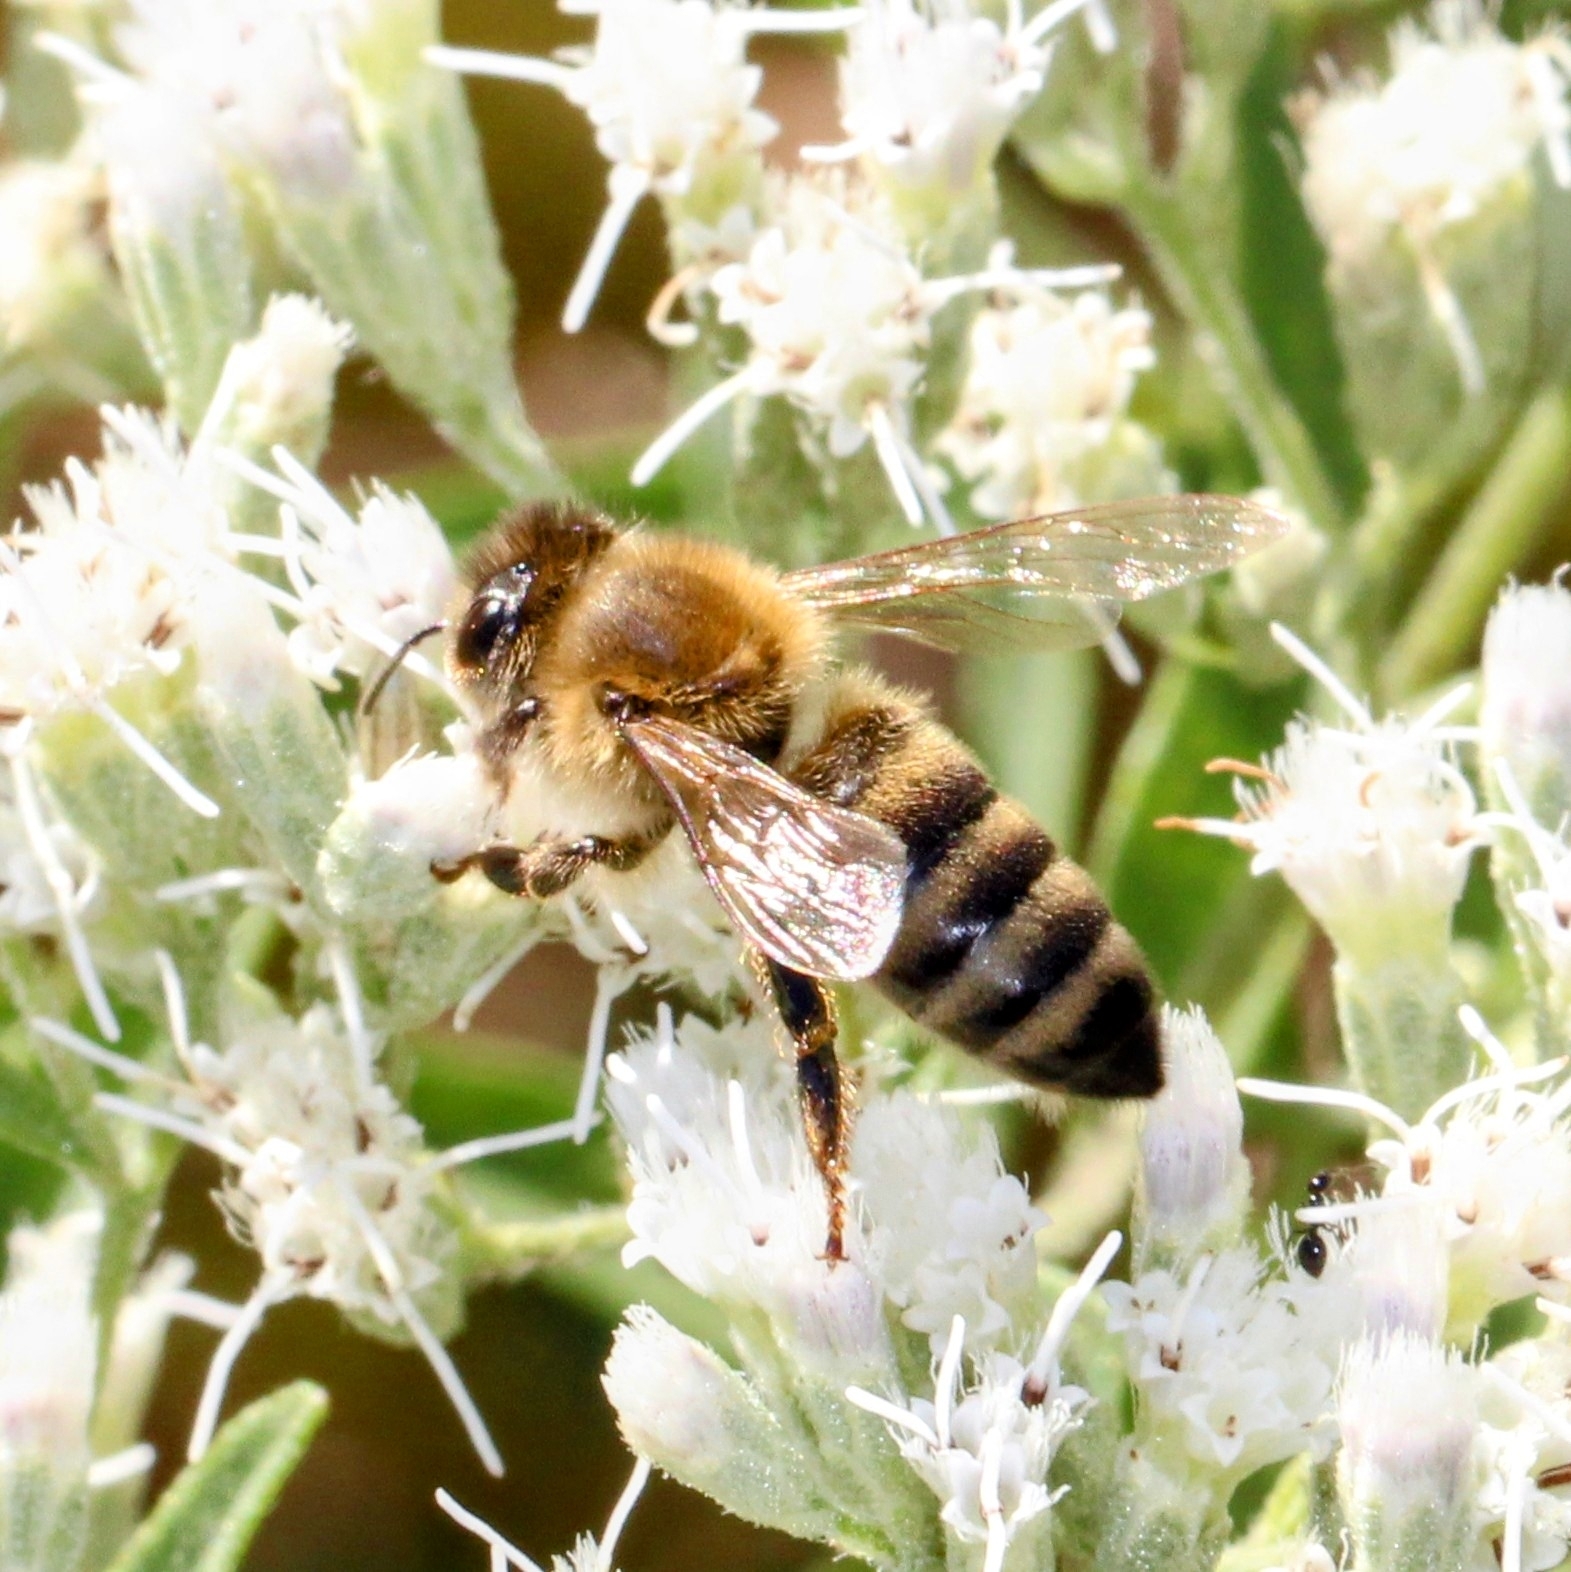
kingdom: Animalia
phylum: Arthropoda
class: Insecta
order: Hymenoptera
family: Apidae
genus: Apis
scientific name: Apis mellifera
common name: Honey bee
